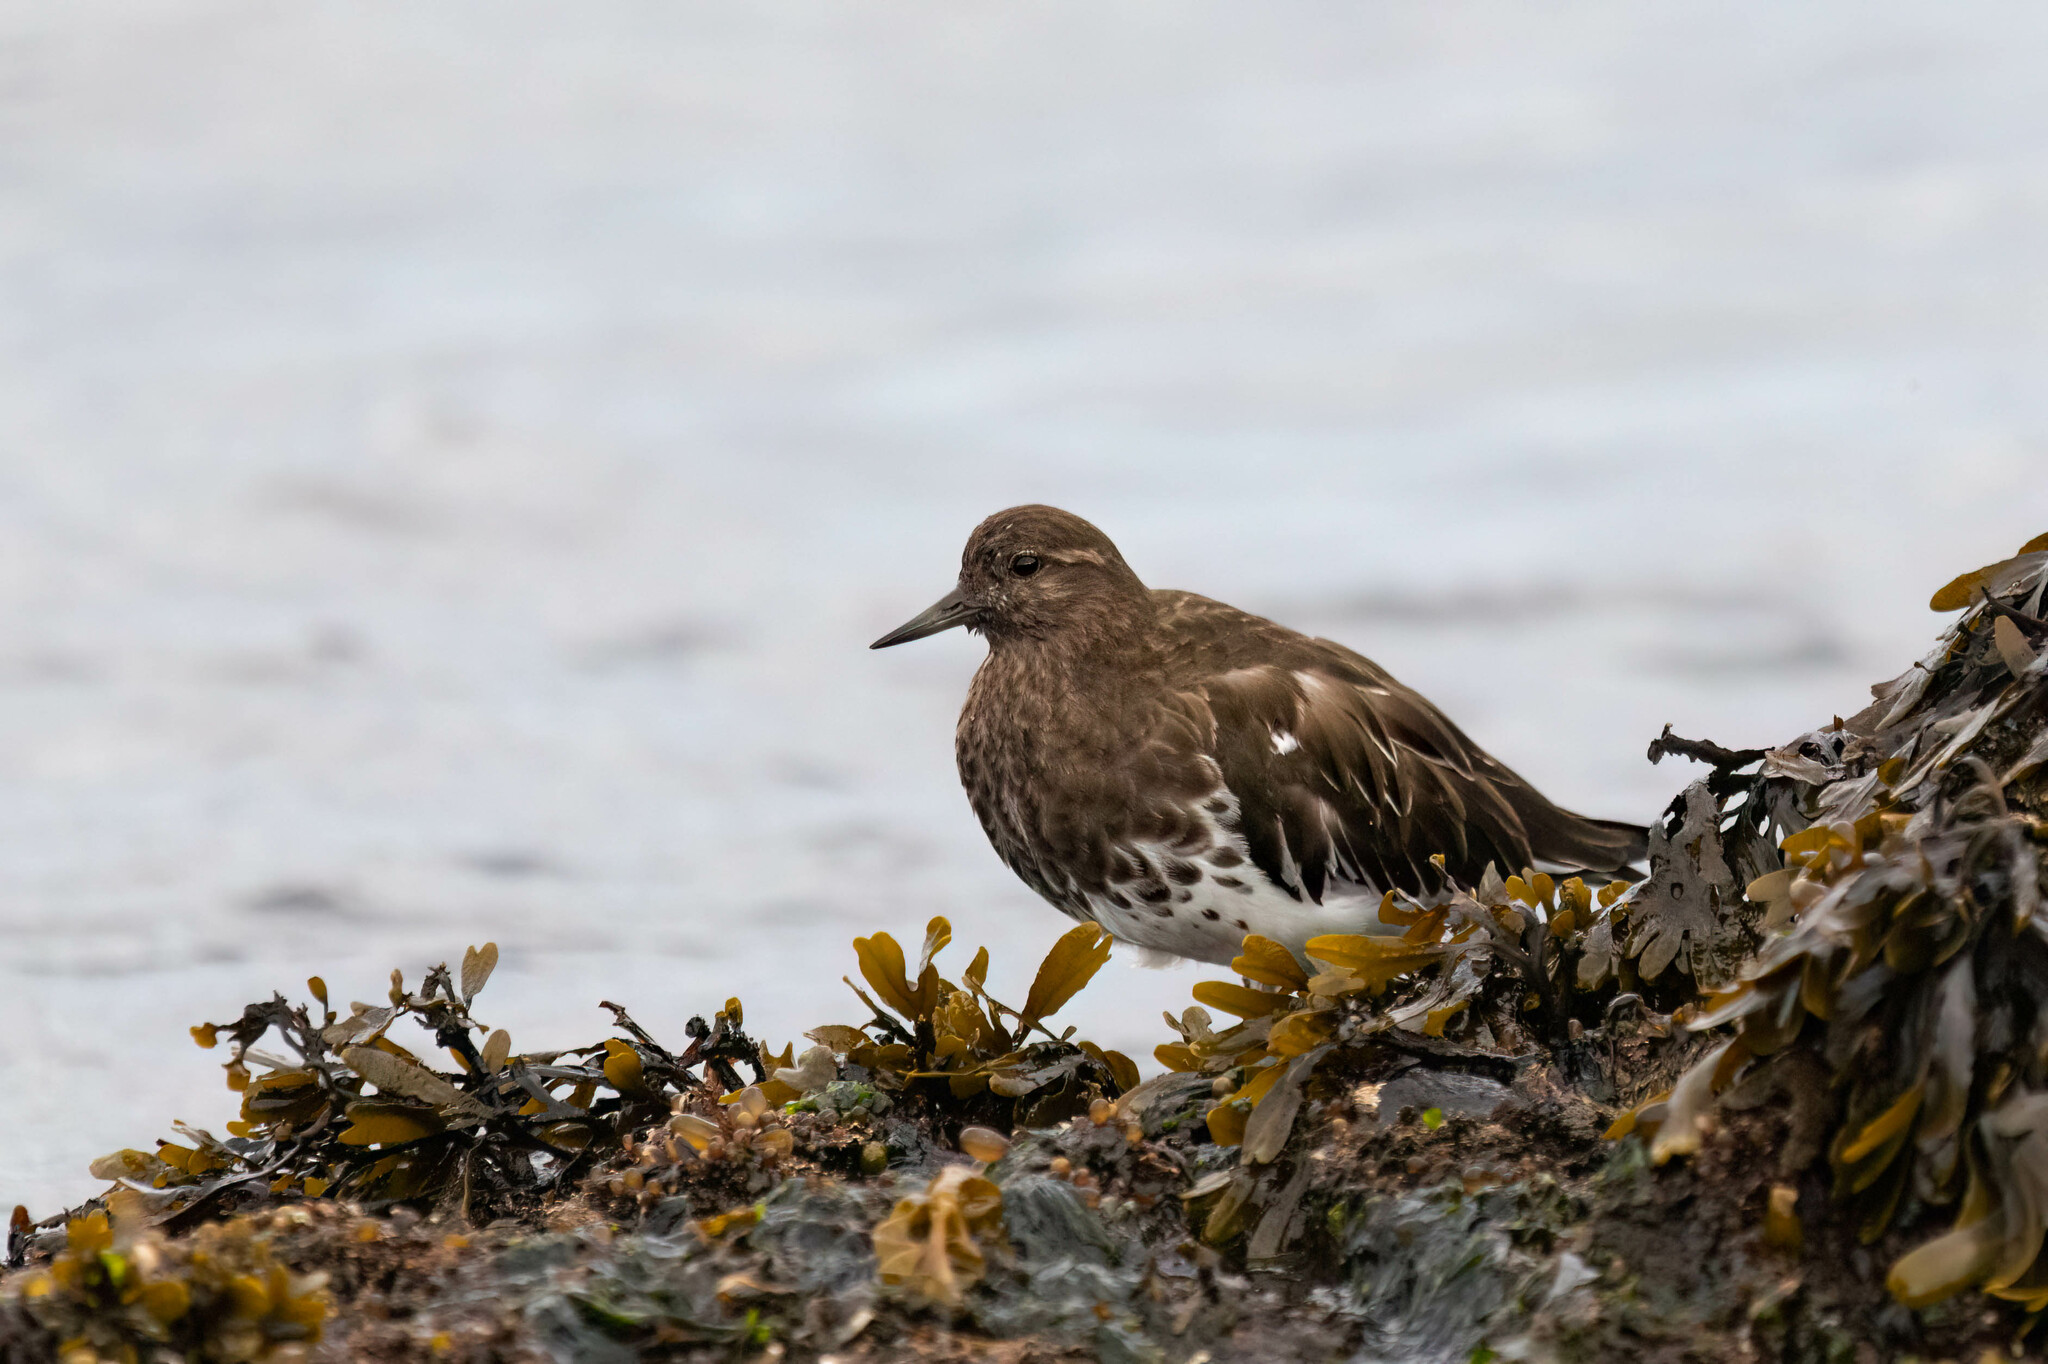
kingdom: Animalia
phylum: Chordata
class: Aves
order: Charadriiformes
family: Scolopacidae
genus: Arenaria
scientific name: Arenaria melanocephala
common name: Black turnstone
